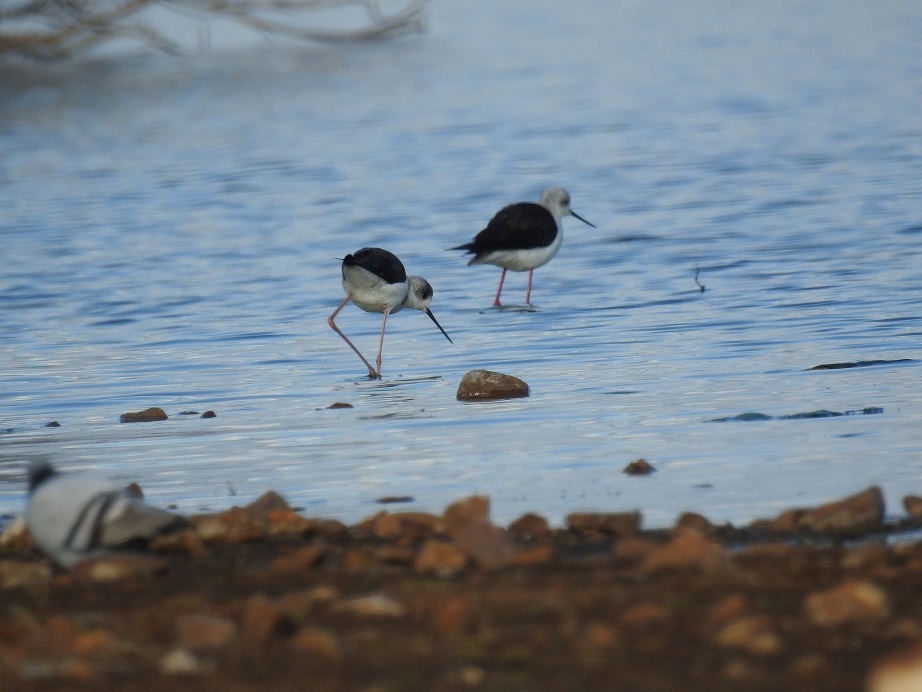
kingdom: Animalia
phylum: Chordata
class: Aves
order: Charadriiformes
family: Recurvirostridae
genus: Himantopus
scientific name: Himantopus himantopus
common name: Black-winged stilt
